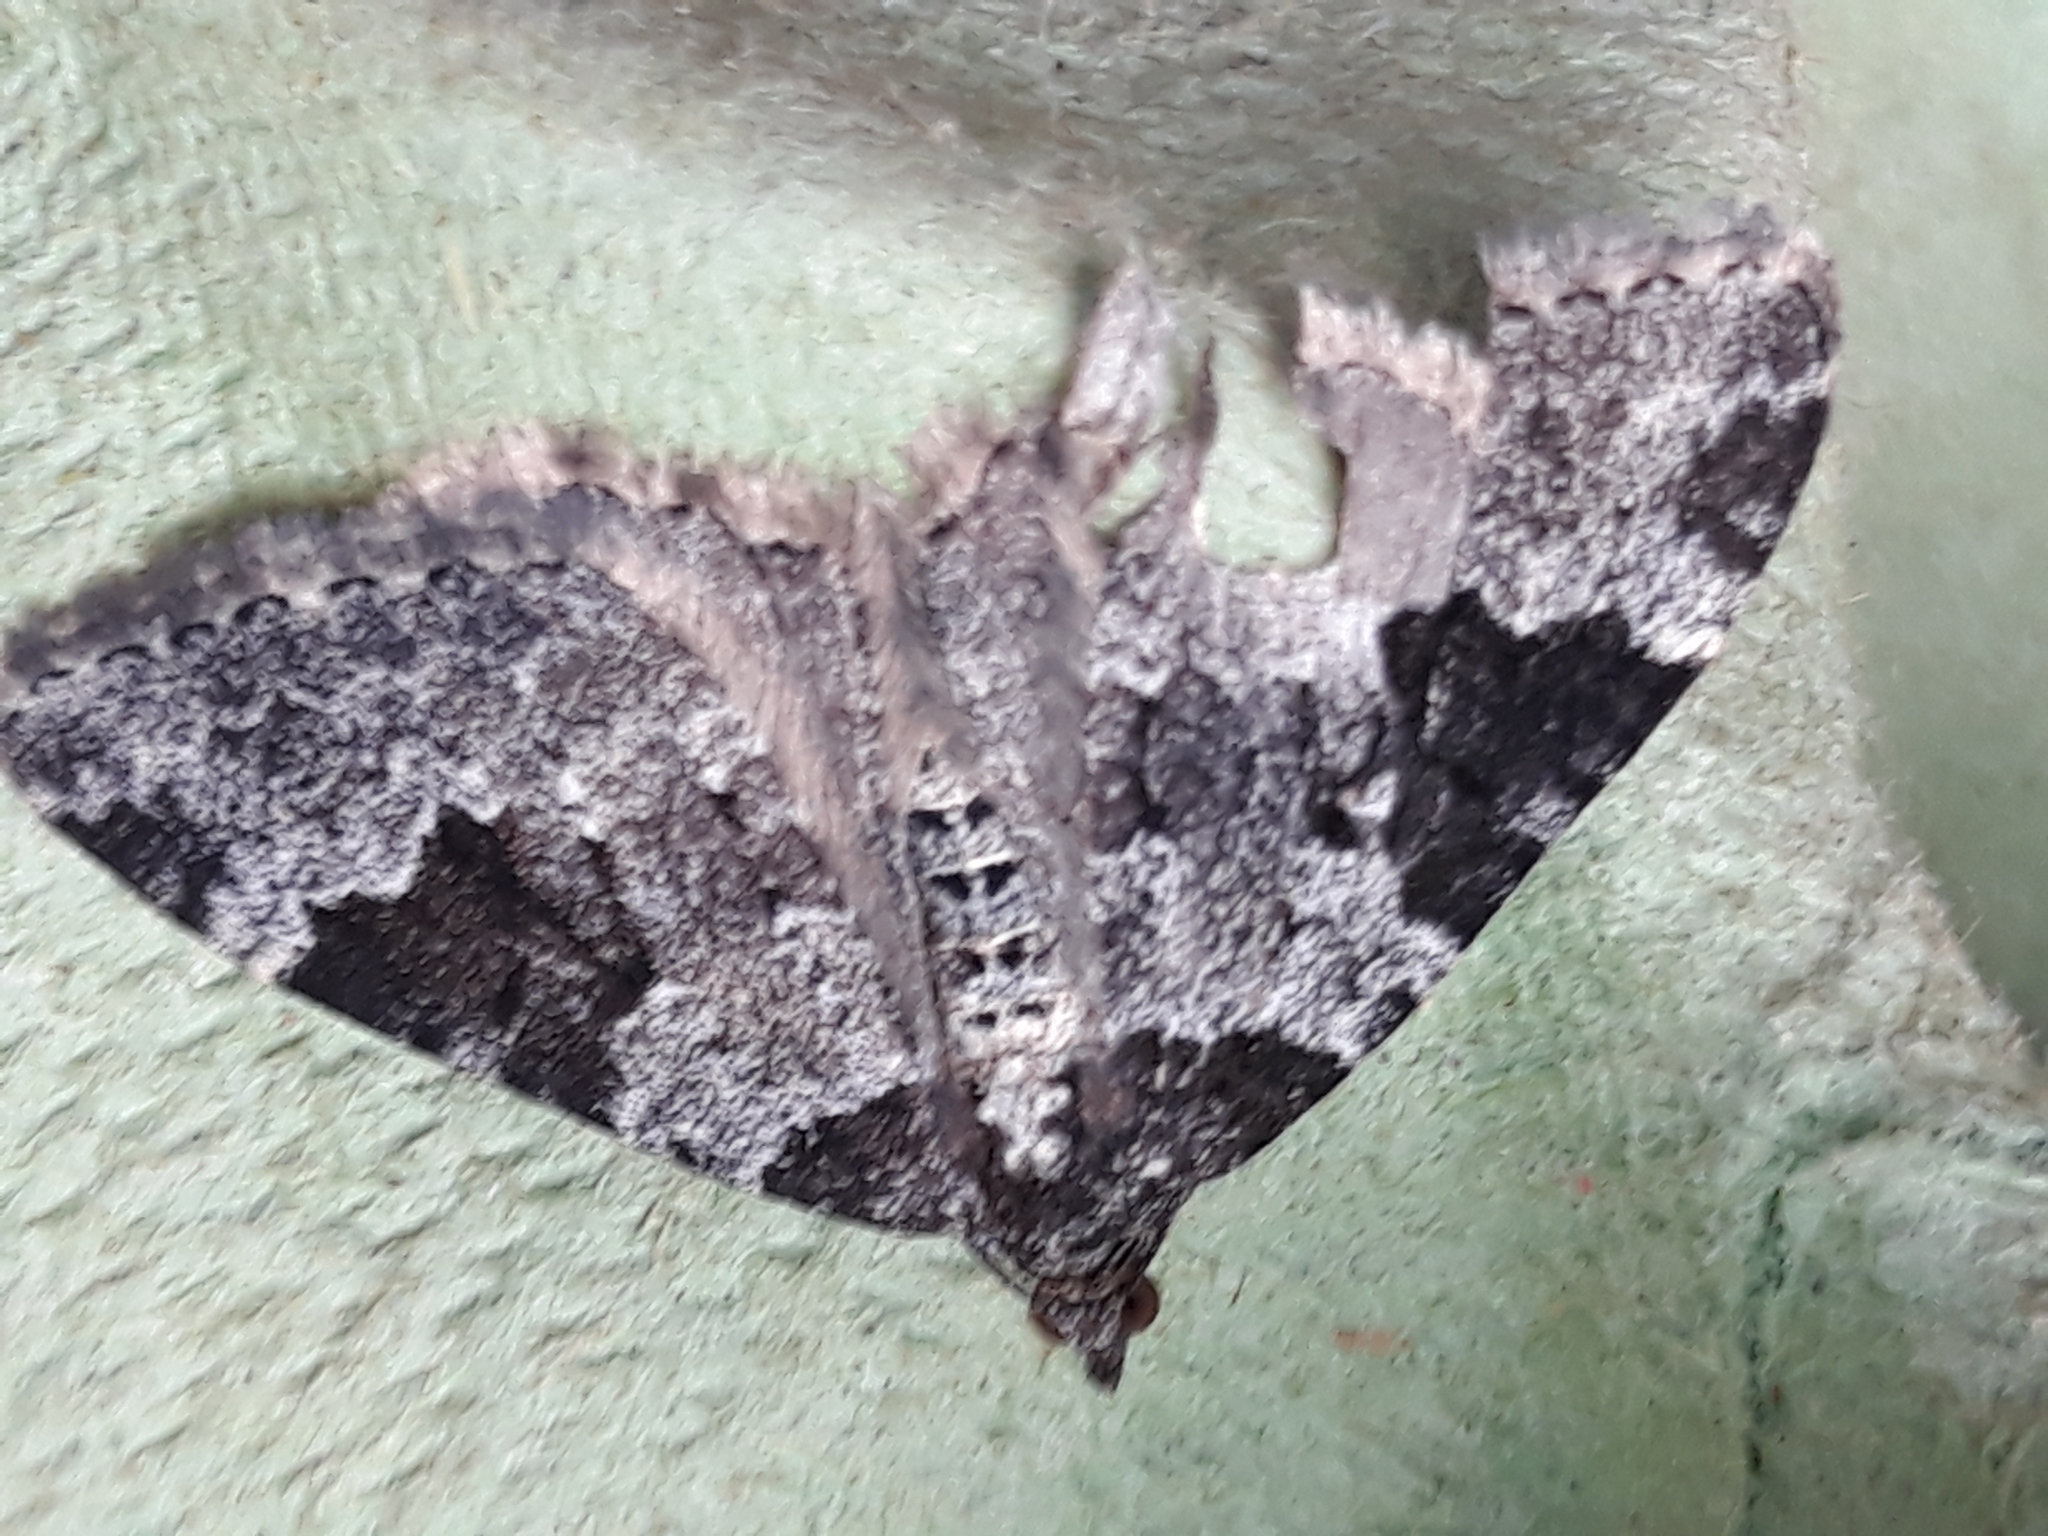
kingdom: Animalia
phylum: Arthropoda
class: Insecta
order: Lepidoptera
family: Geometridae
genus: Xanthorhoe
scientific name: Xanthorhoe fluctuata
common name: Garden carpet
